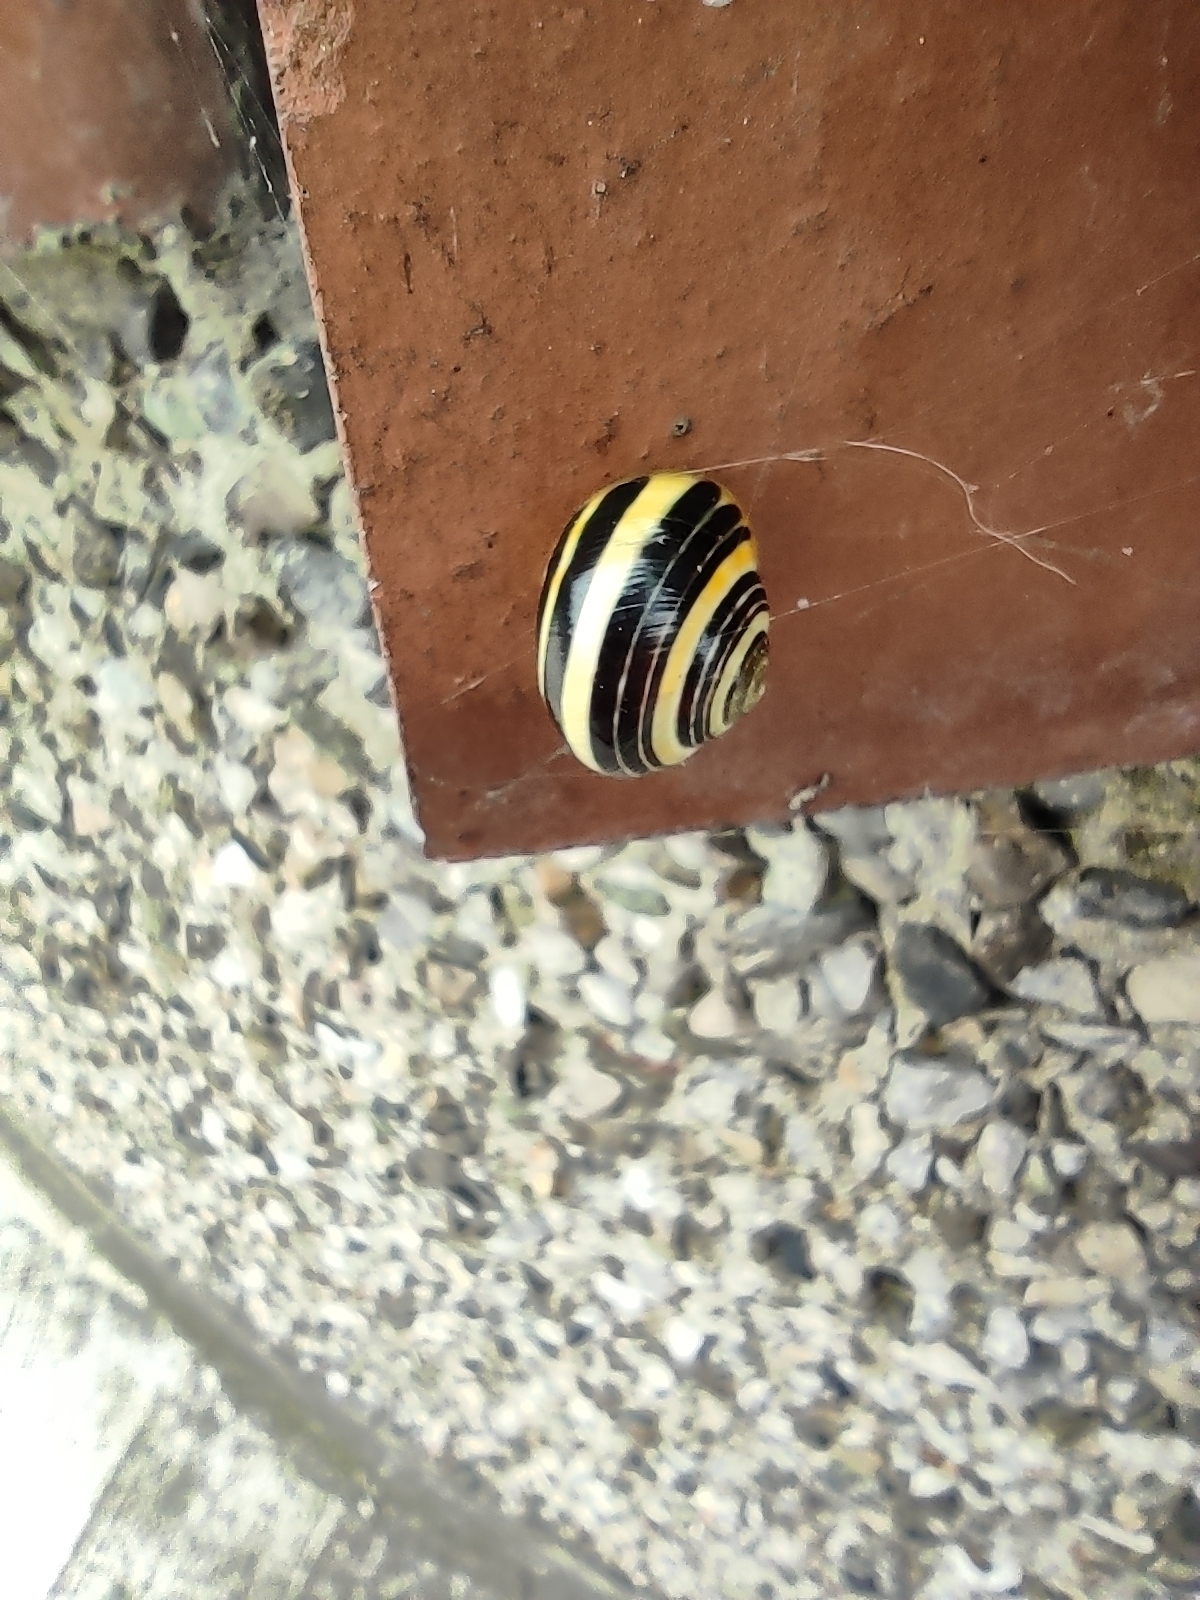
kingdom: Animalia
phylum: Mollusca
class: Gastropoda
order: Stylommatophora
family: Helicidae
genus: Cepaea
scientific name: Cepaea nemoralis
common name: Grovesnail
